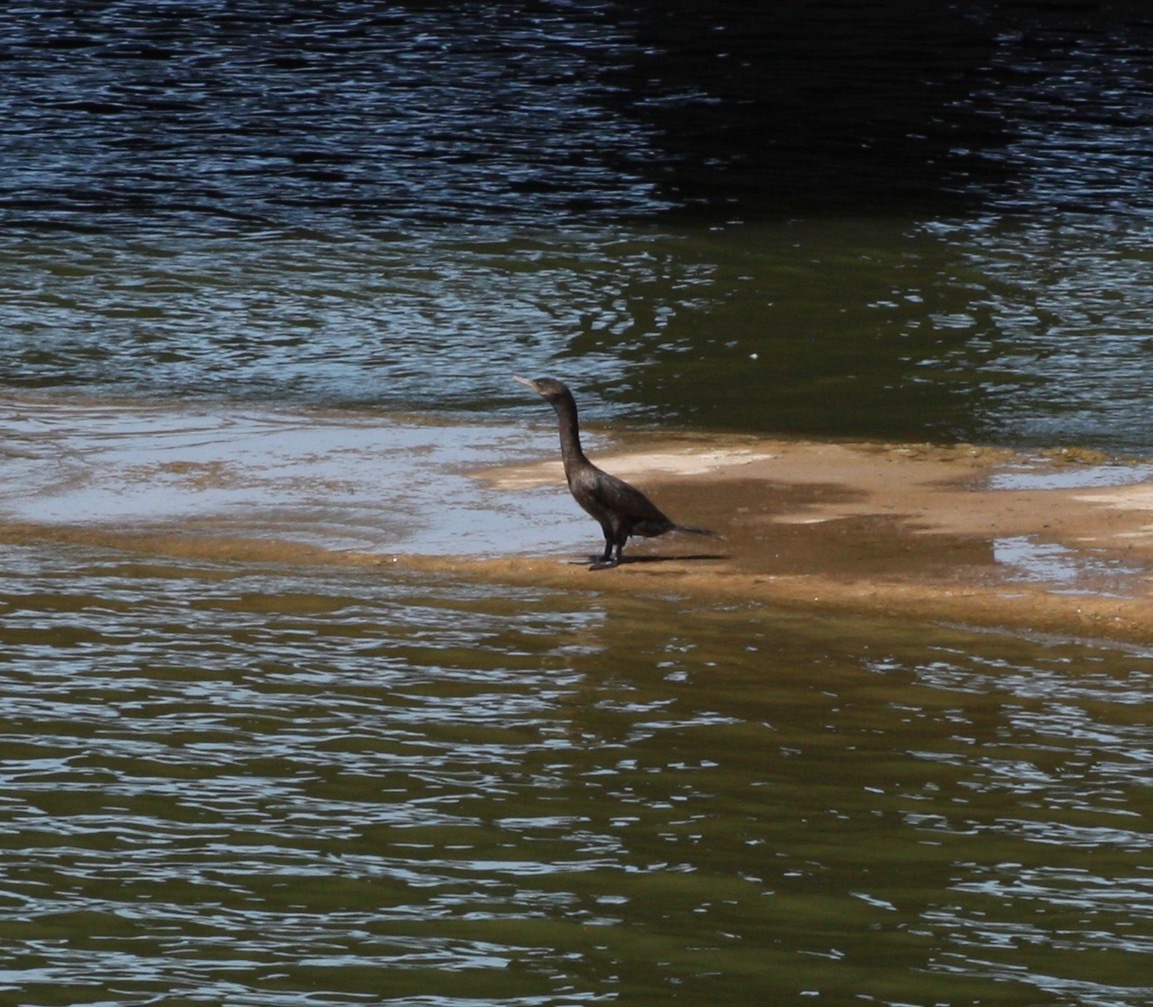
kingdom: Animalia
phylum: Chordata
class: Aves
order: Suliformes
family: Phalacrocoracidae
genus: Phalacrocorax
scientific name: Phalacrocorax brasilianus
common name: Neotropic cormorant
